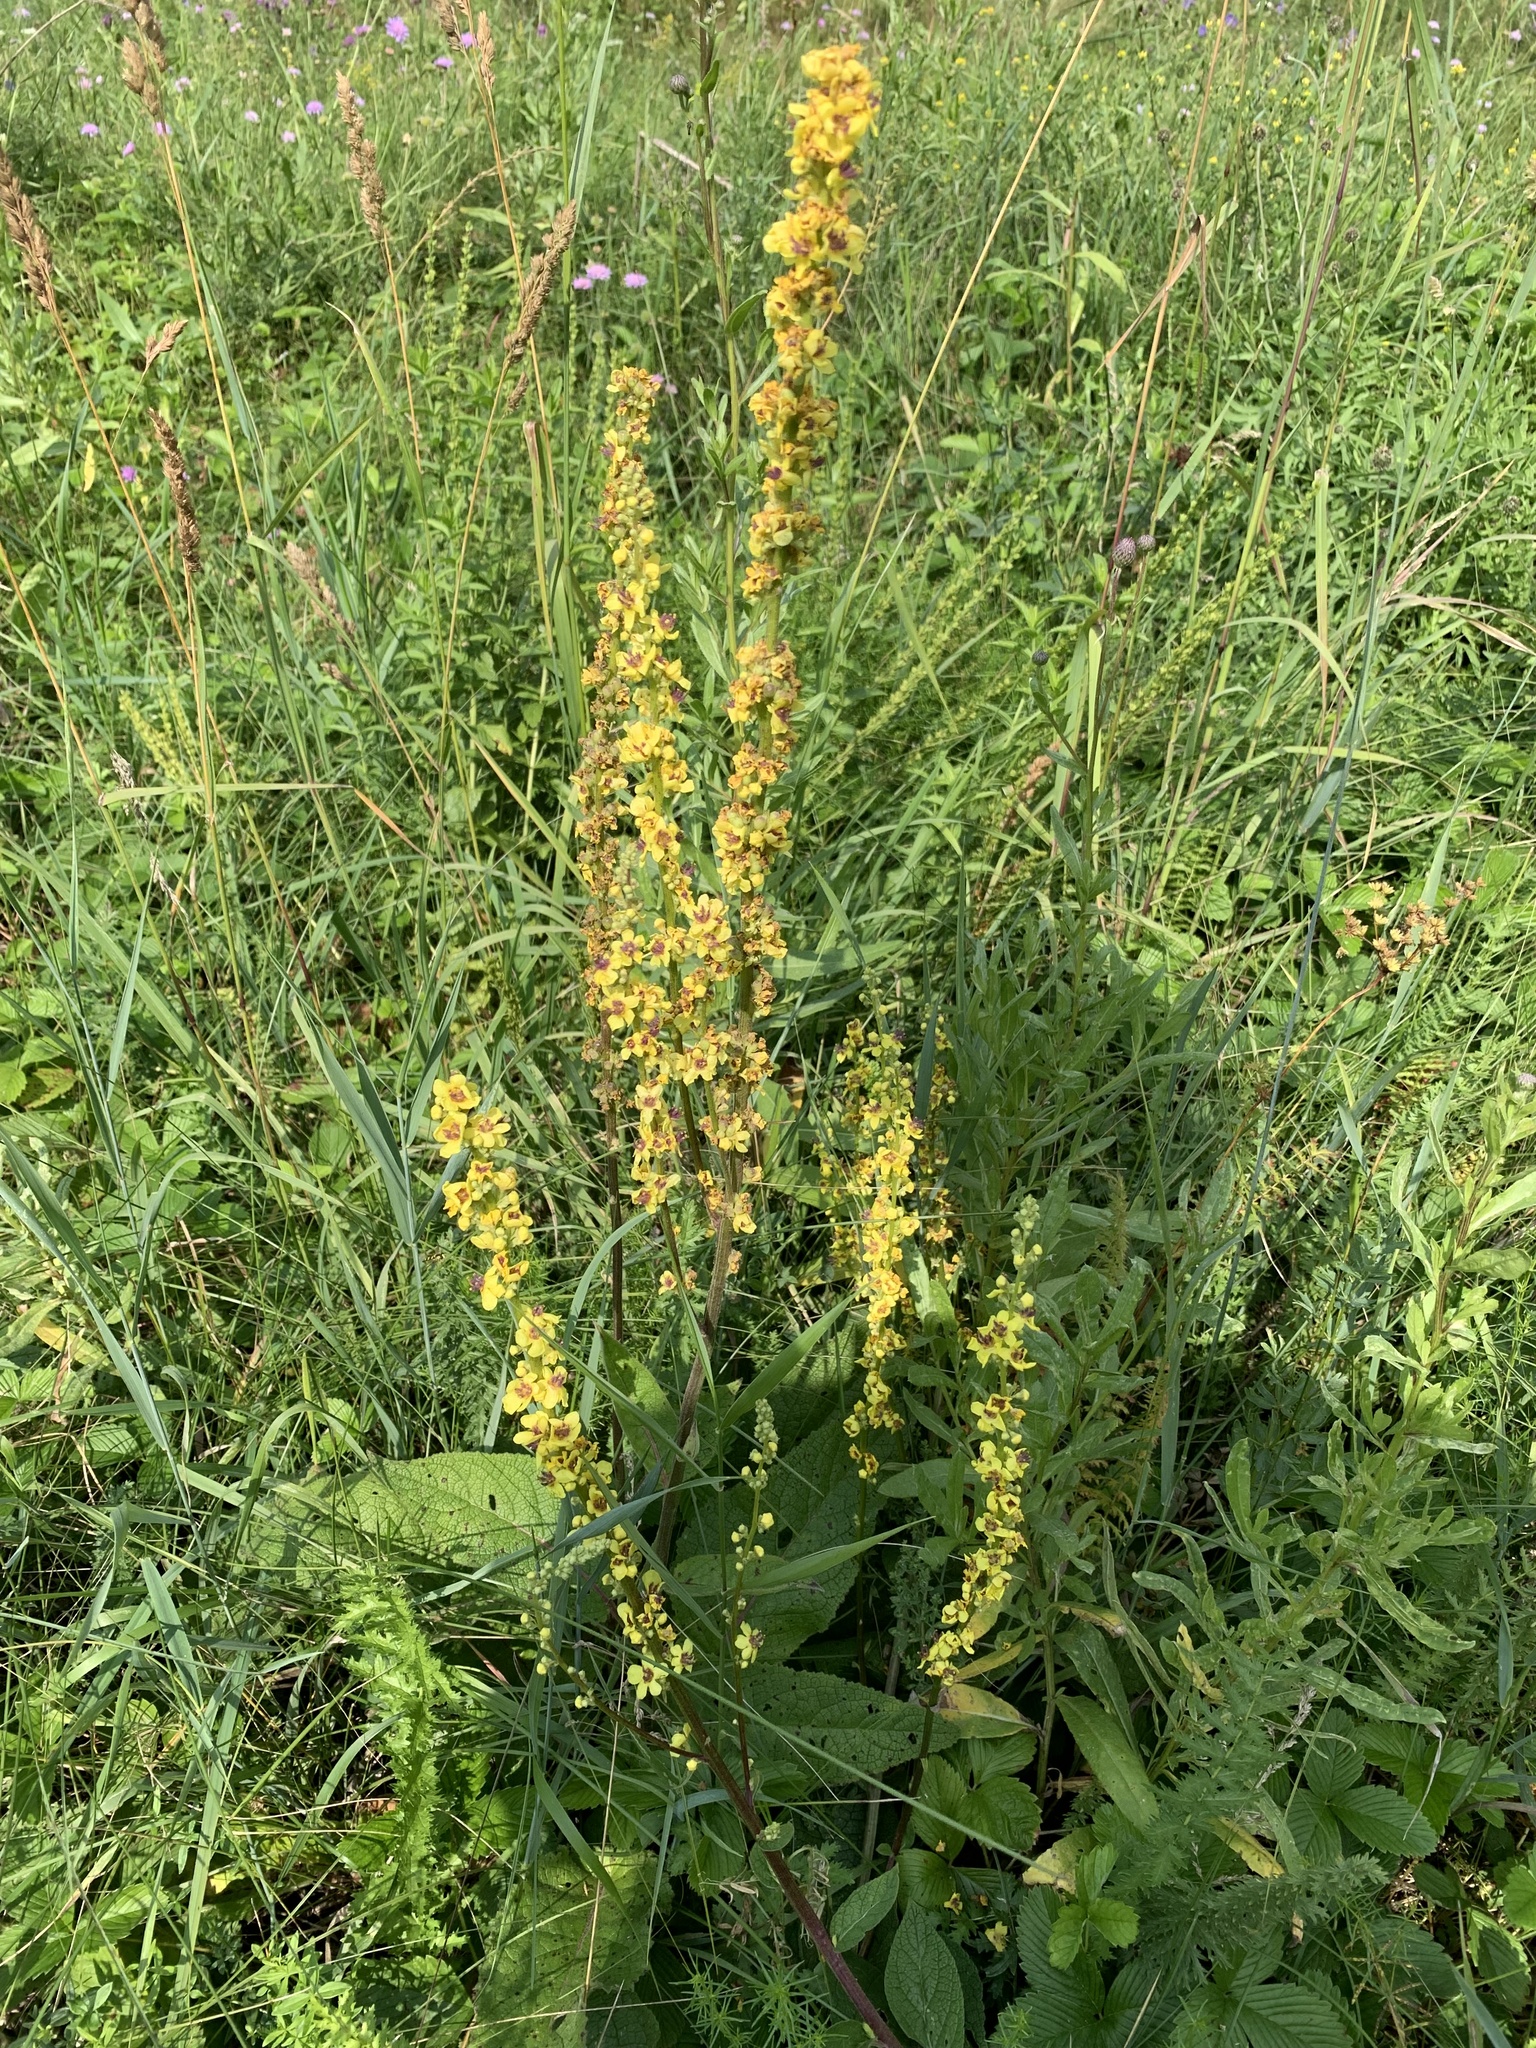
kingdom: Plantae
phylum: Tracheophyta
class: Magnoliopsida
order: Lamiales
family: Scrophulariaceae
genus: Verbascum
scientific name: Verbascum nigrum
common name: Dark mullein
